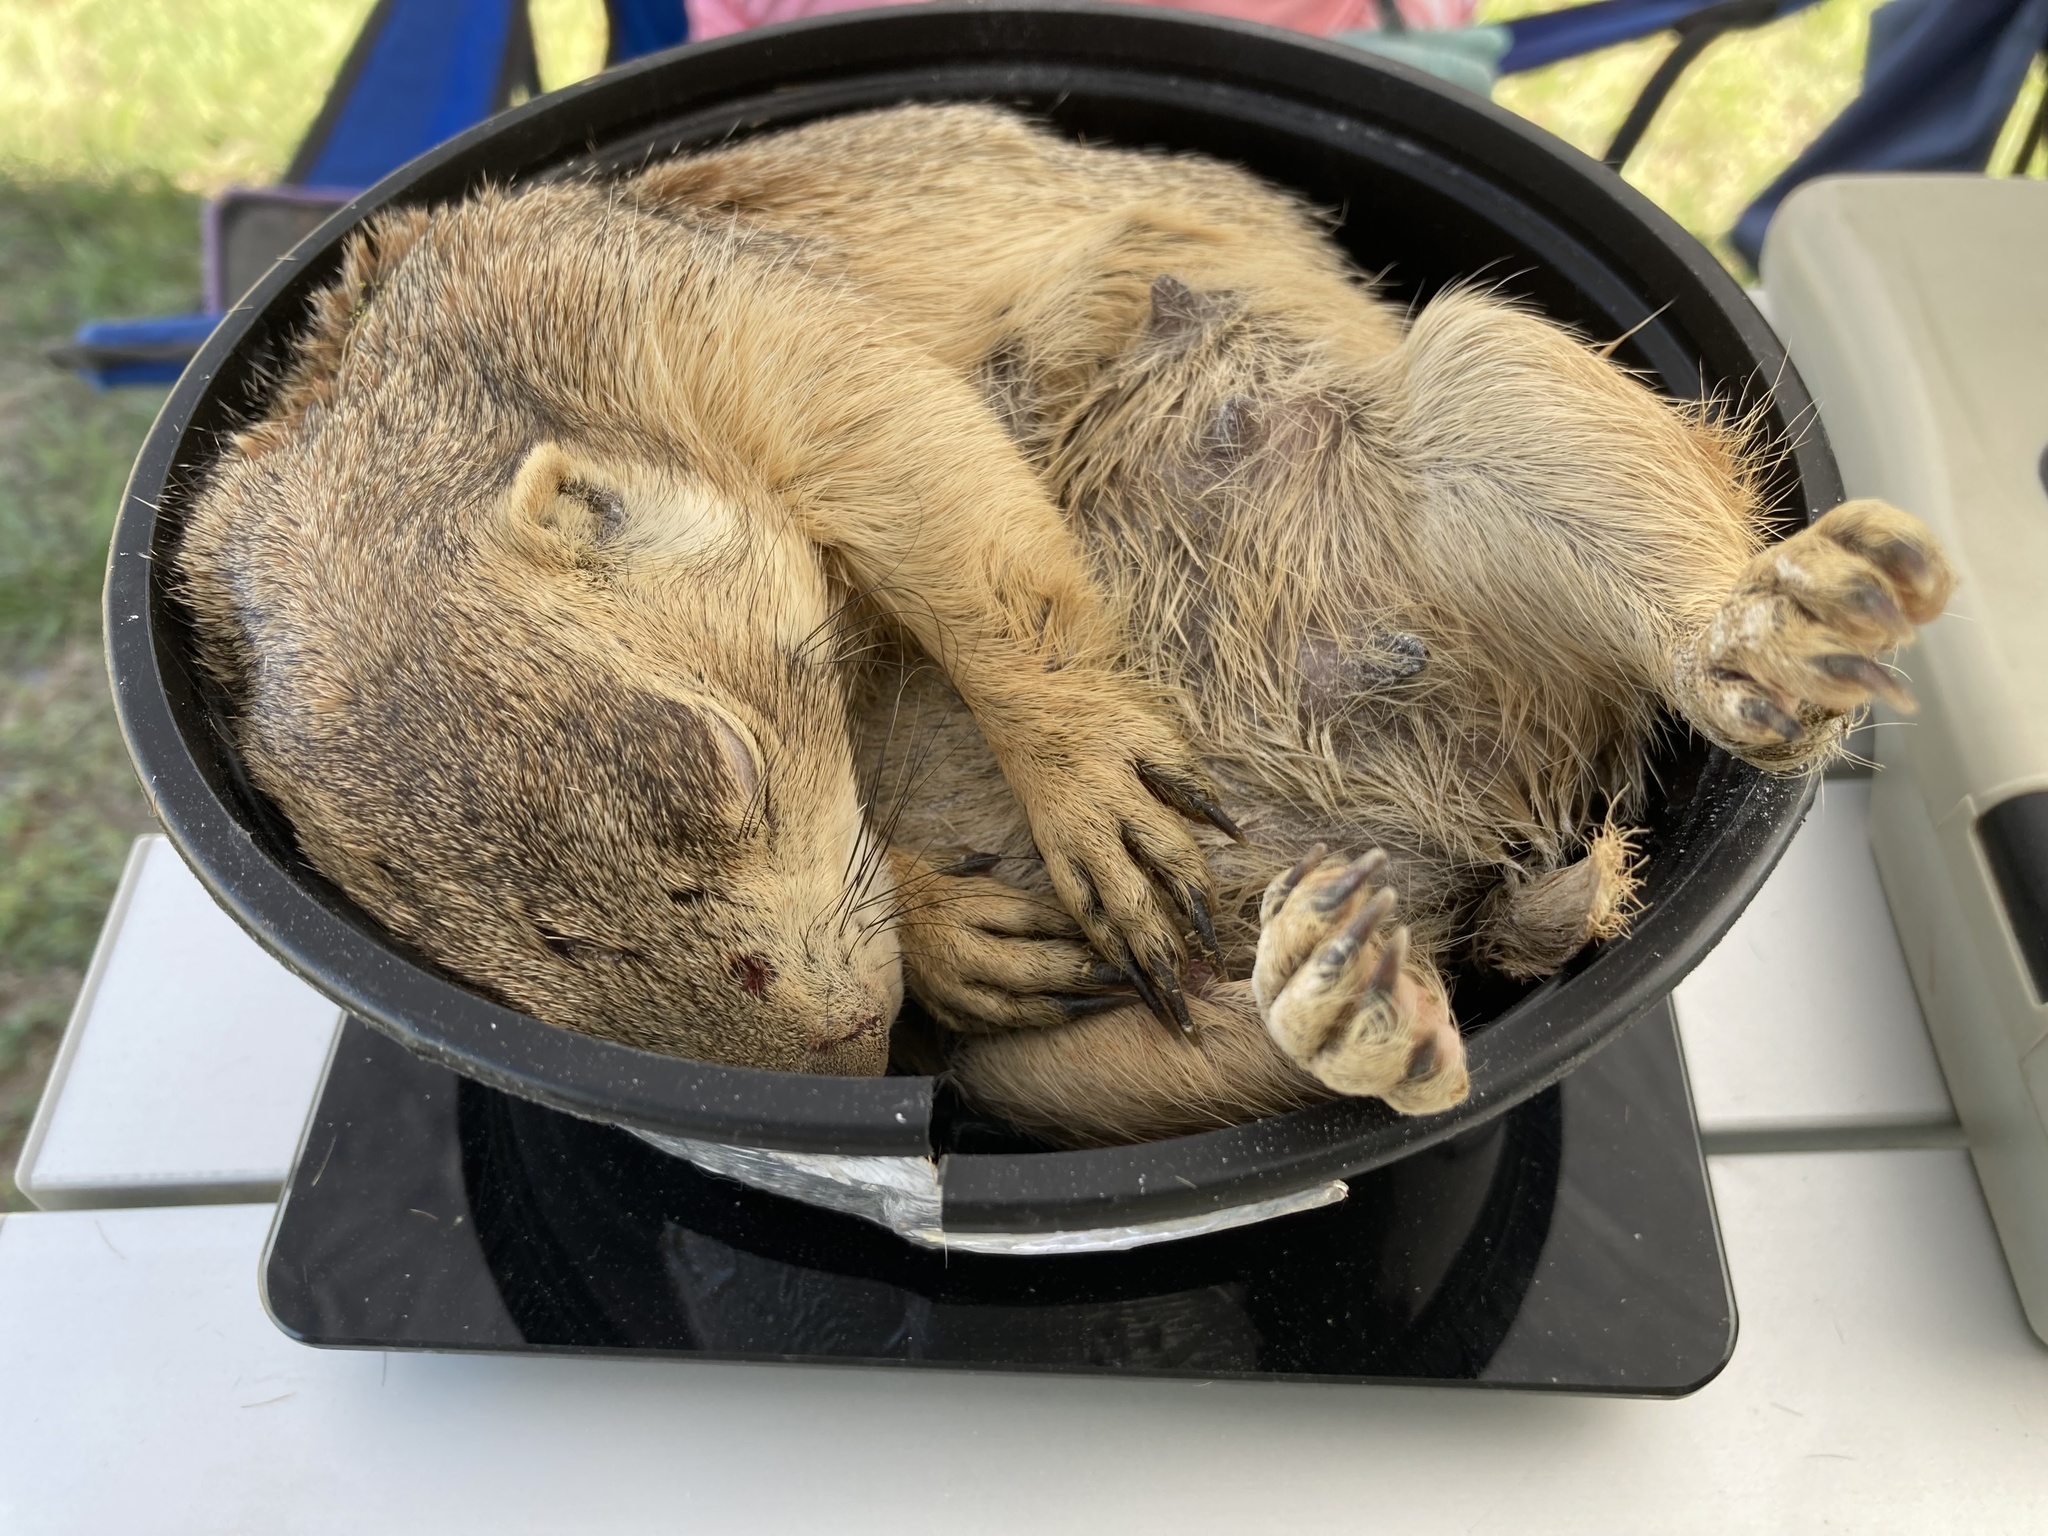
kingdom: Animalia
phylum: Chordata
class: Mammalia
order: Rodentia
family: Sciuridae
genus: Cynomys
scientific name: Cynomys gunnisoni
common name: Gunnison's prairie dog
